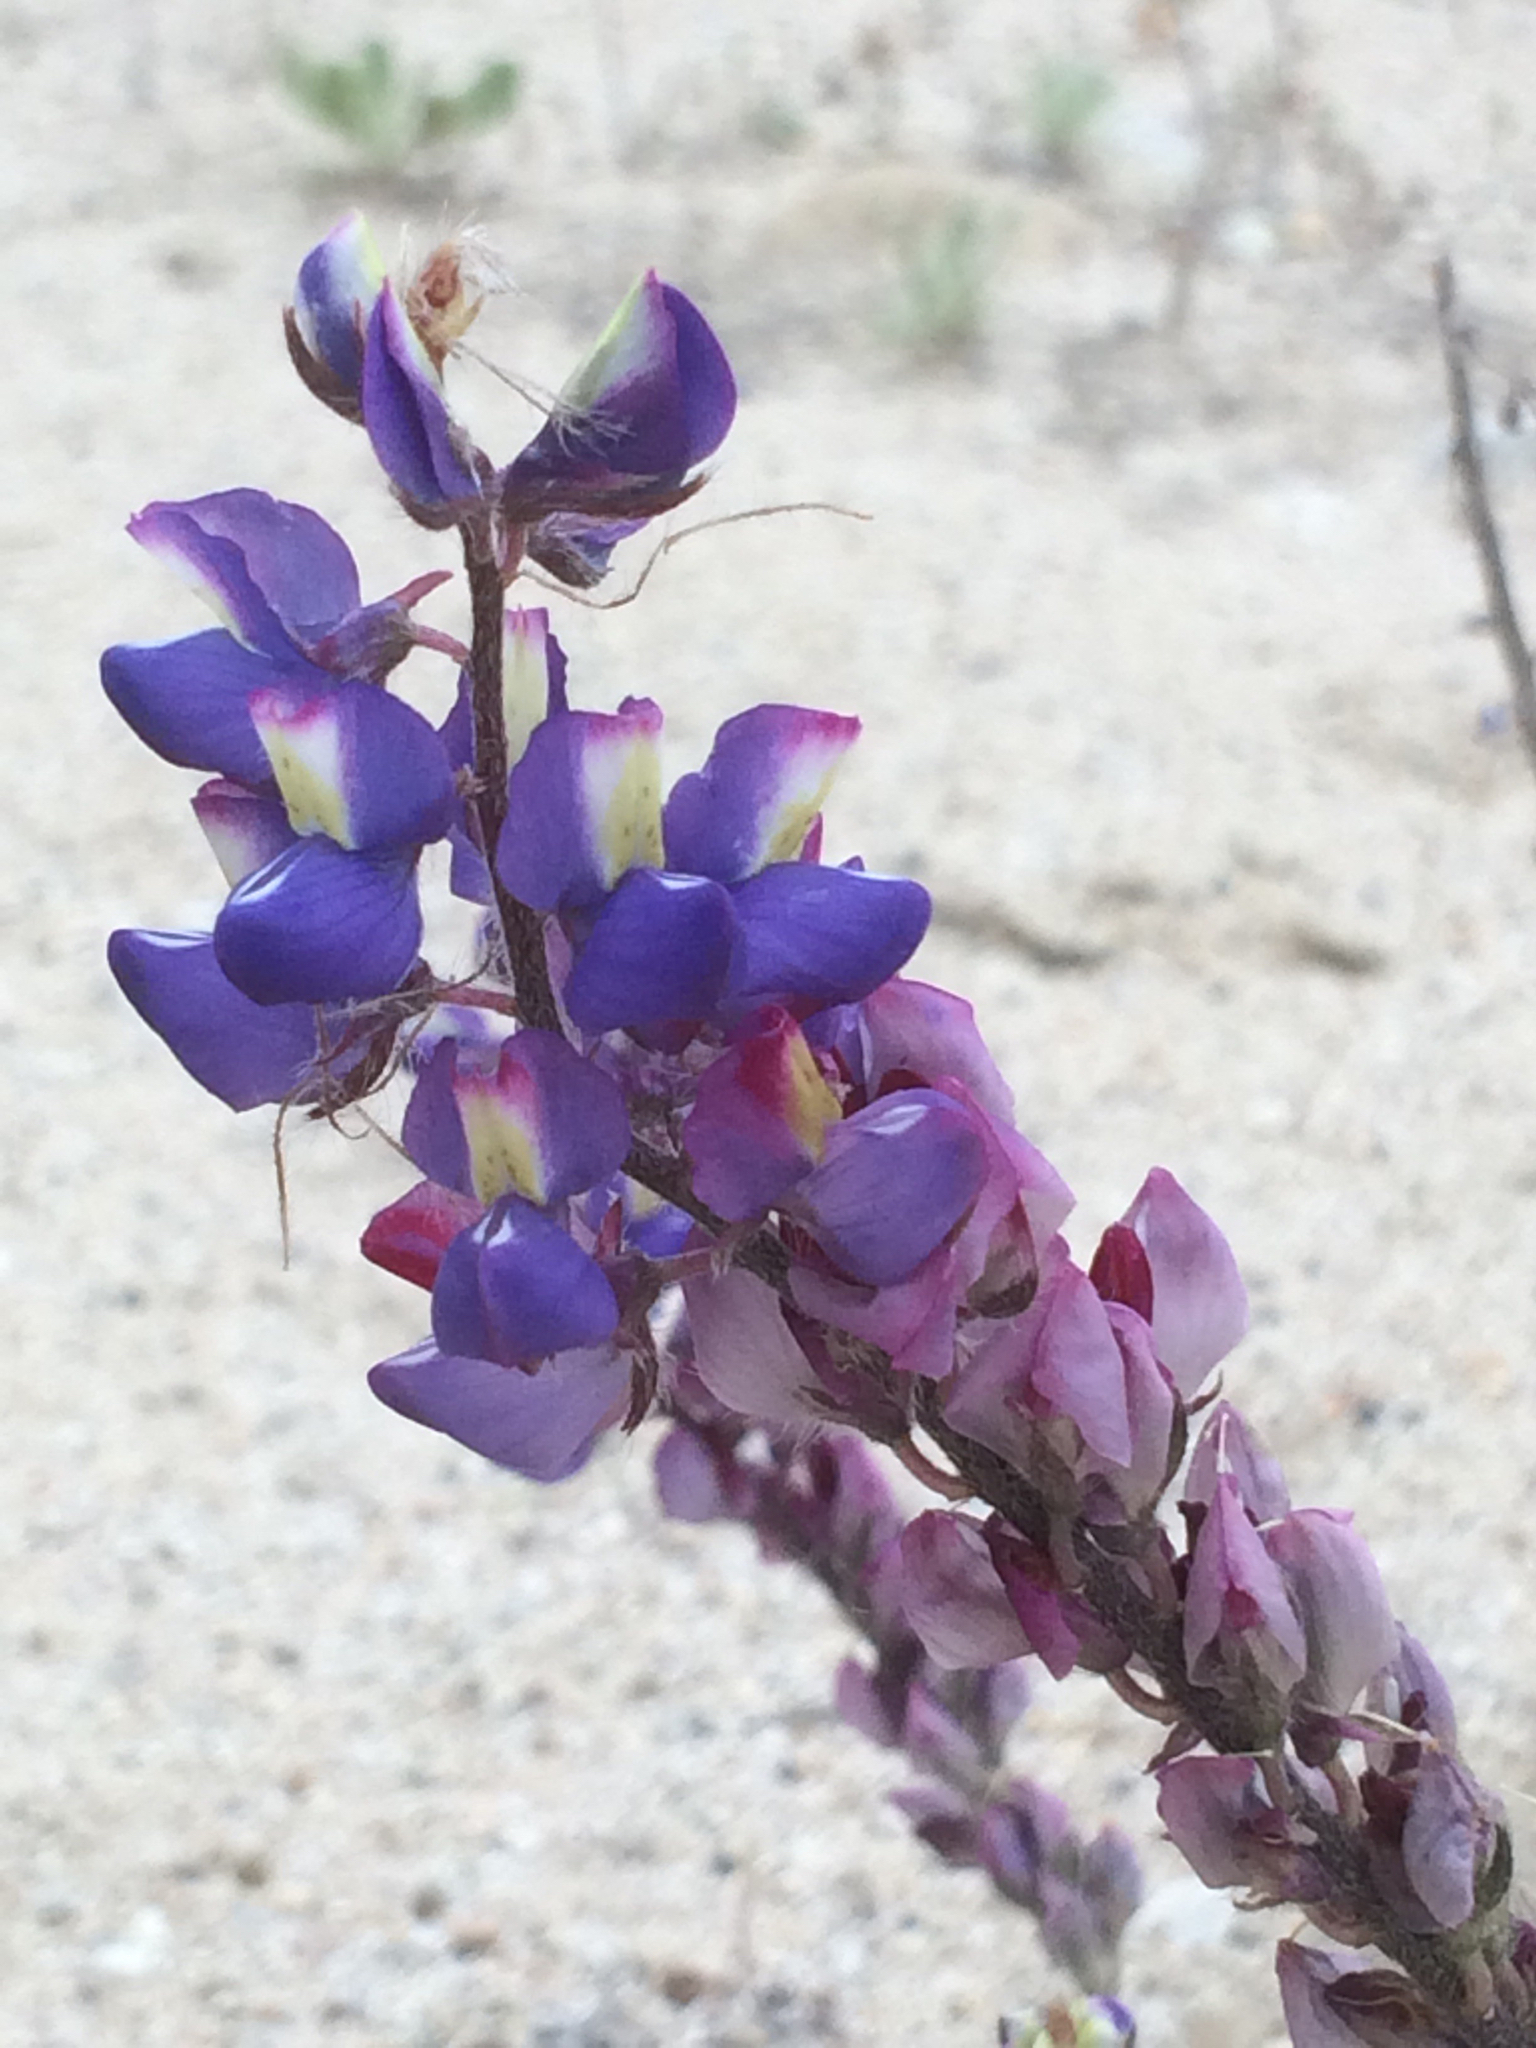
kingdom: Plantae
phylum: Tracheophyta
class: Magnoliopsida
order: Fabales
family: Fabaceae
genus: Lupinus
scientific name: Lupinus sparsiflorus
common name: Coulter's lupine
